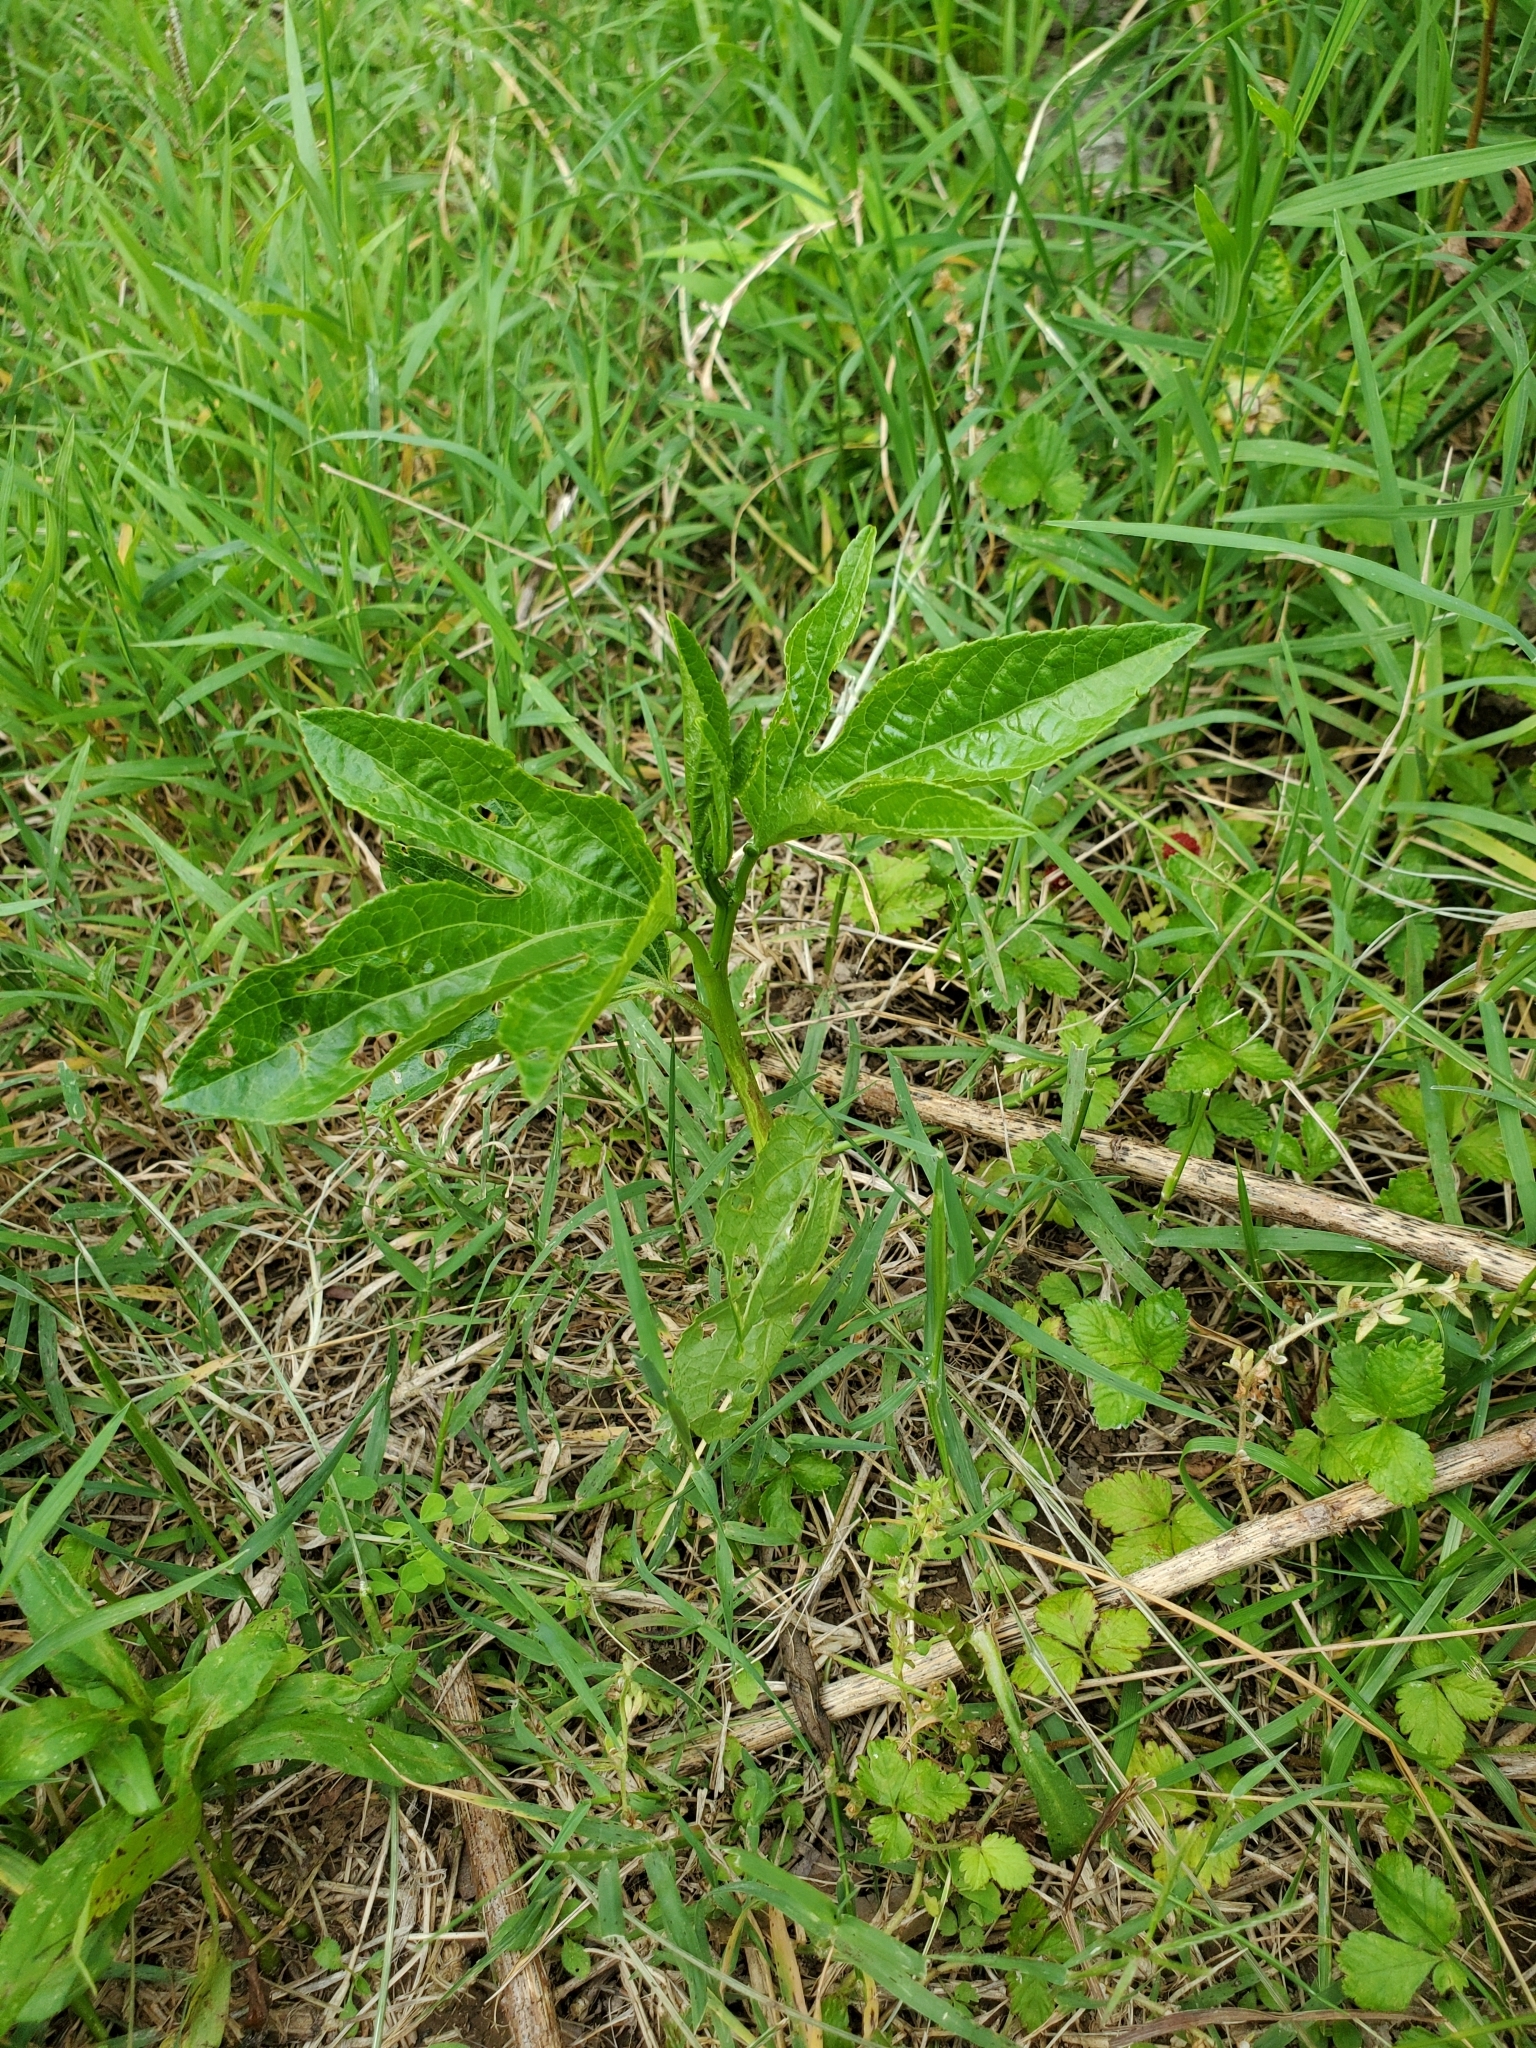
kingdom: Plantae
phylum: Tracheophyta
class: Magnoliopsida
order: Malpighiales
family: Passifloraceae
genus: Passiflora
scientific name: Passiflora incarnata
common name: Apricot-vine
